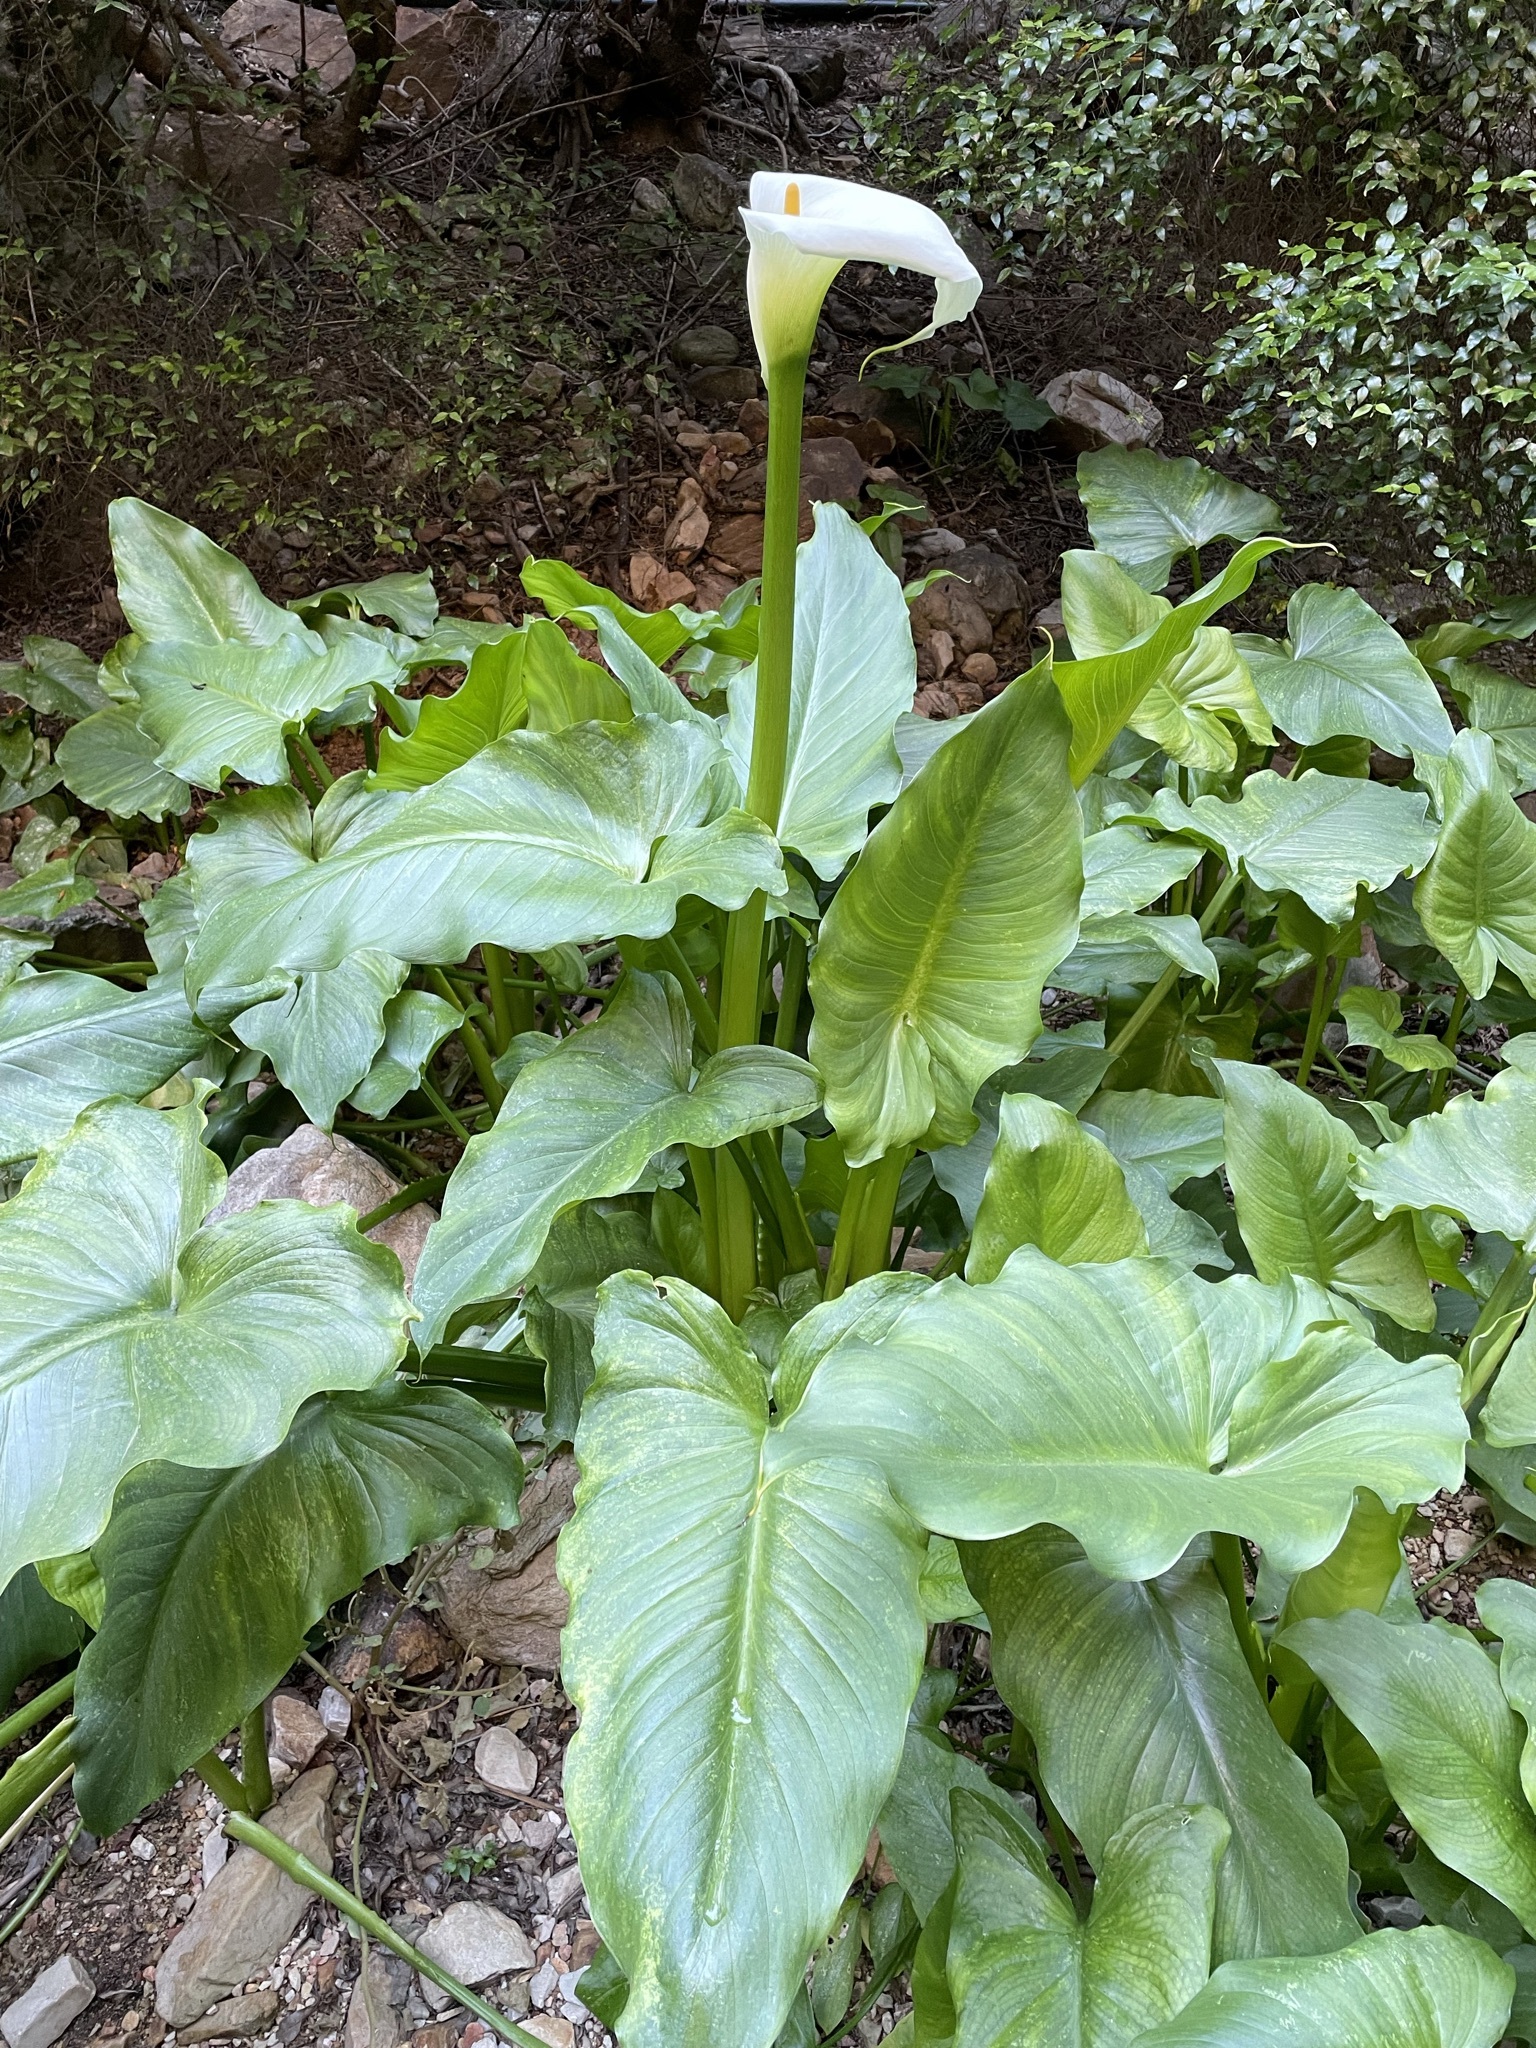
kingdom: Plantae
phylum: Tracheophyta
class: Liliopsida
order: Alismatales
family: Araceae
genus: Zantedeschia
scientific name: Zantedeschia aethiopica
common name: Altar-lily
